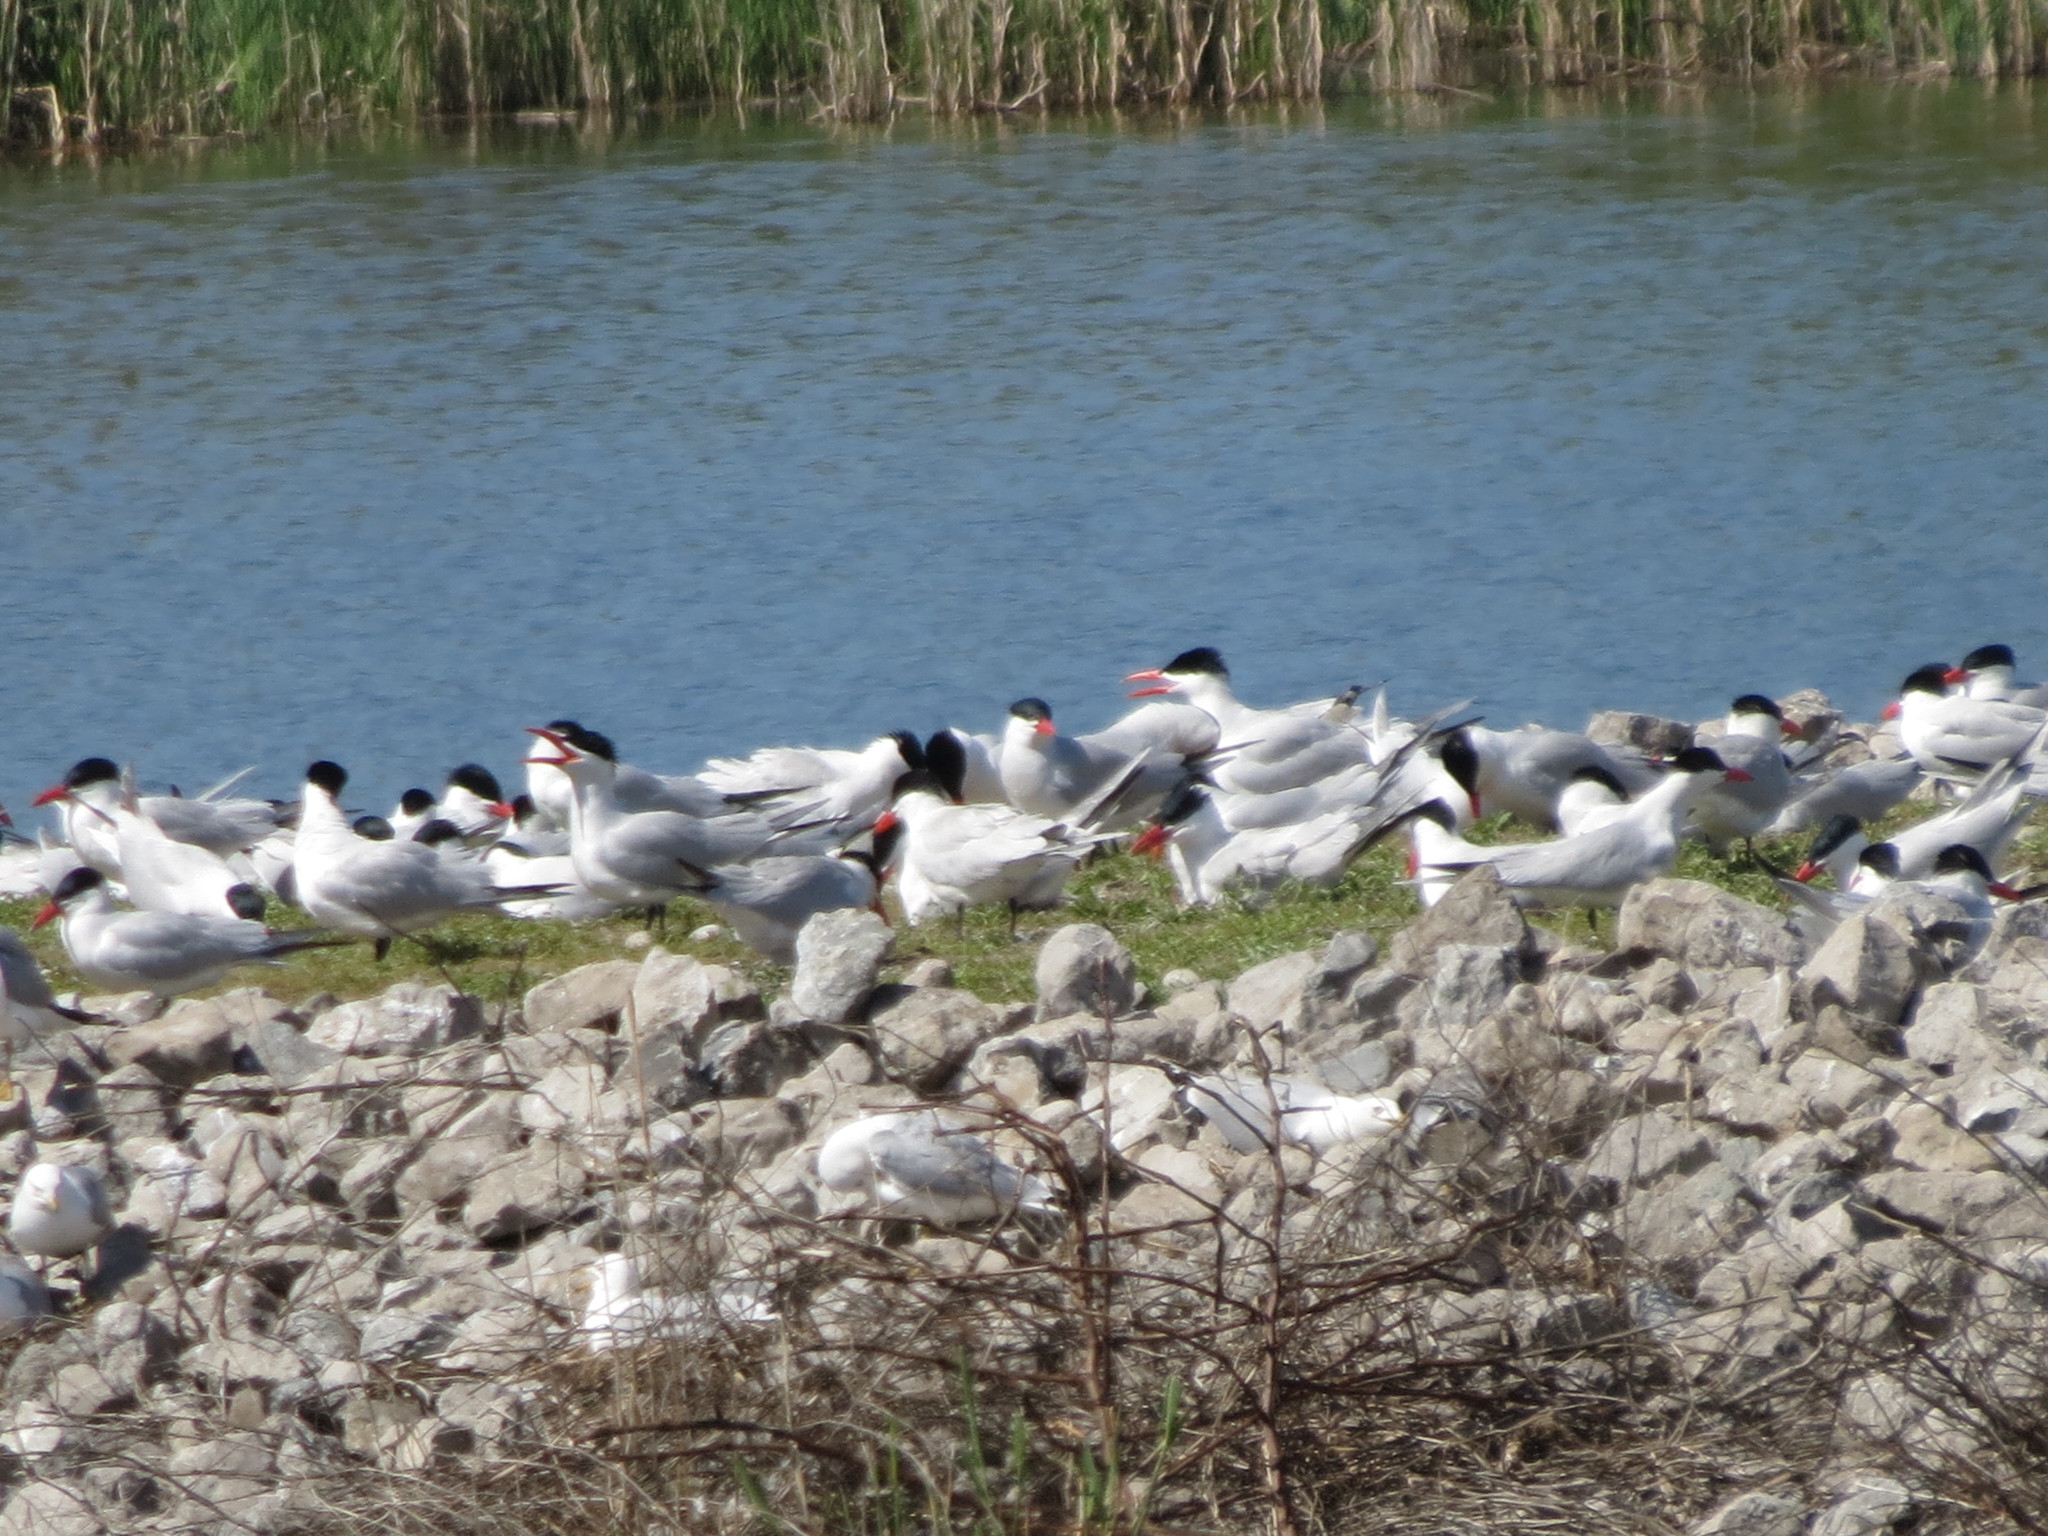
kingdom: Animalia
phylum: Chordata
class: Aves
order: Charadriiformes
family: Laridae
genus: Hydroprogne
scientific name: Hydroprogne caspia
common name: Caspian tern
